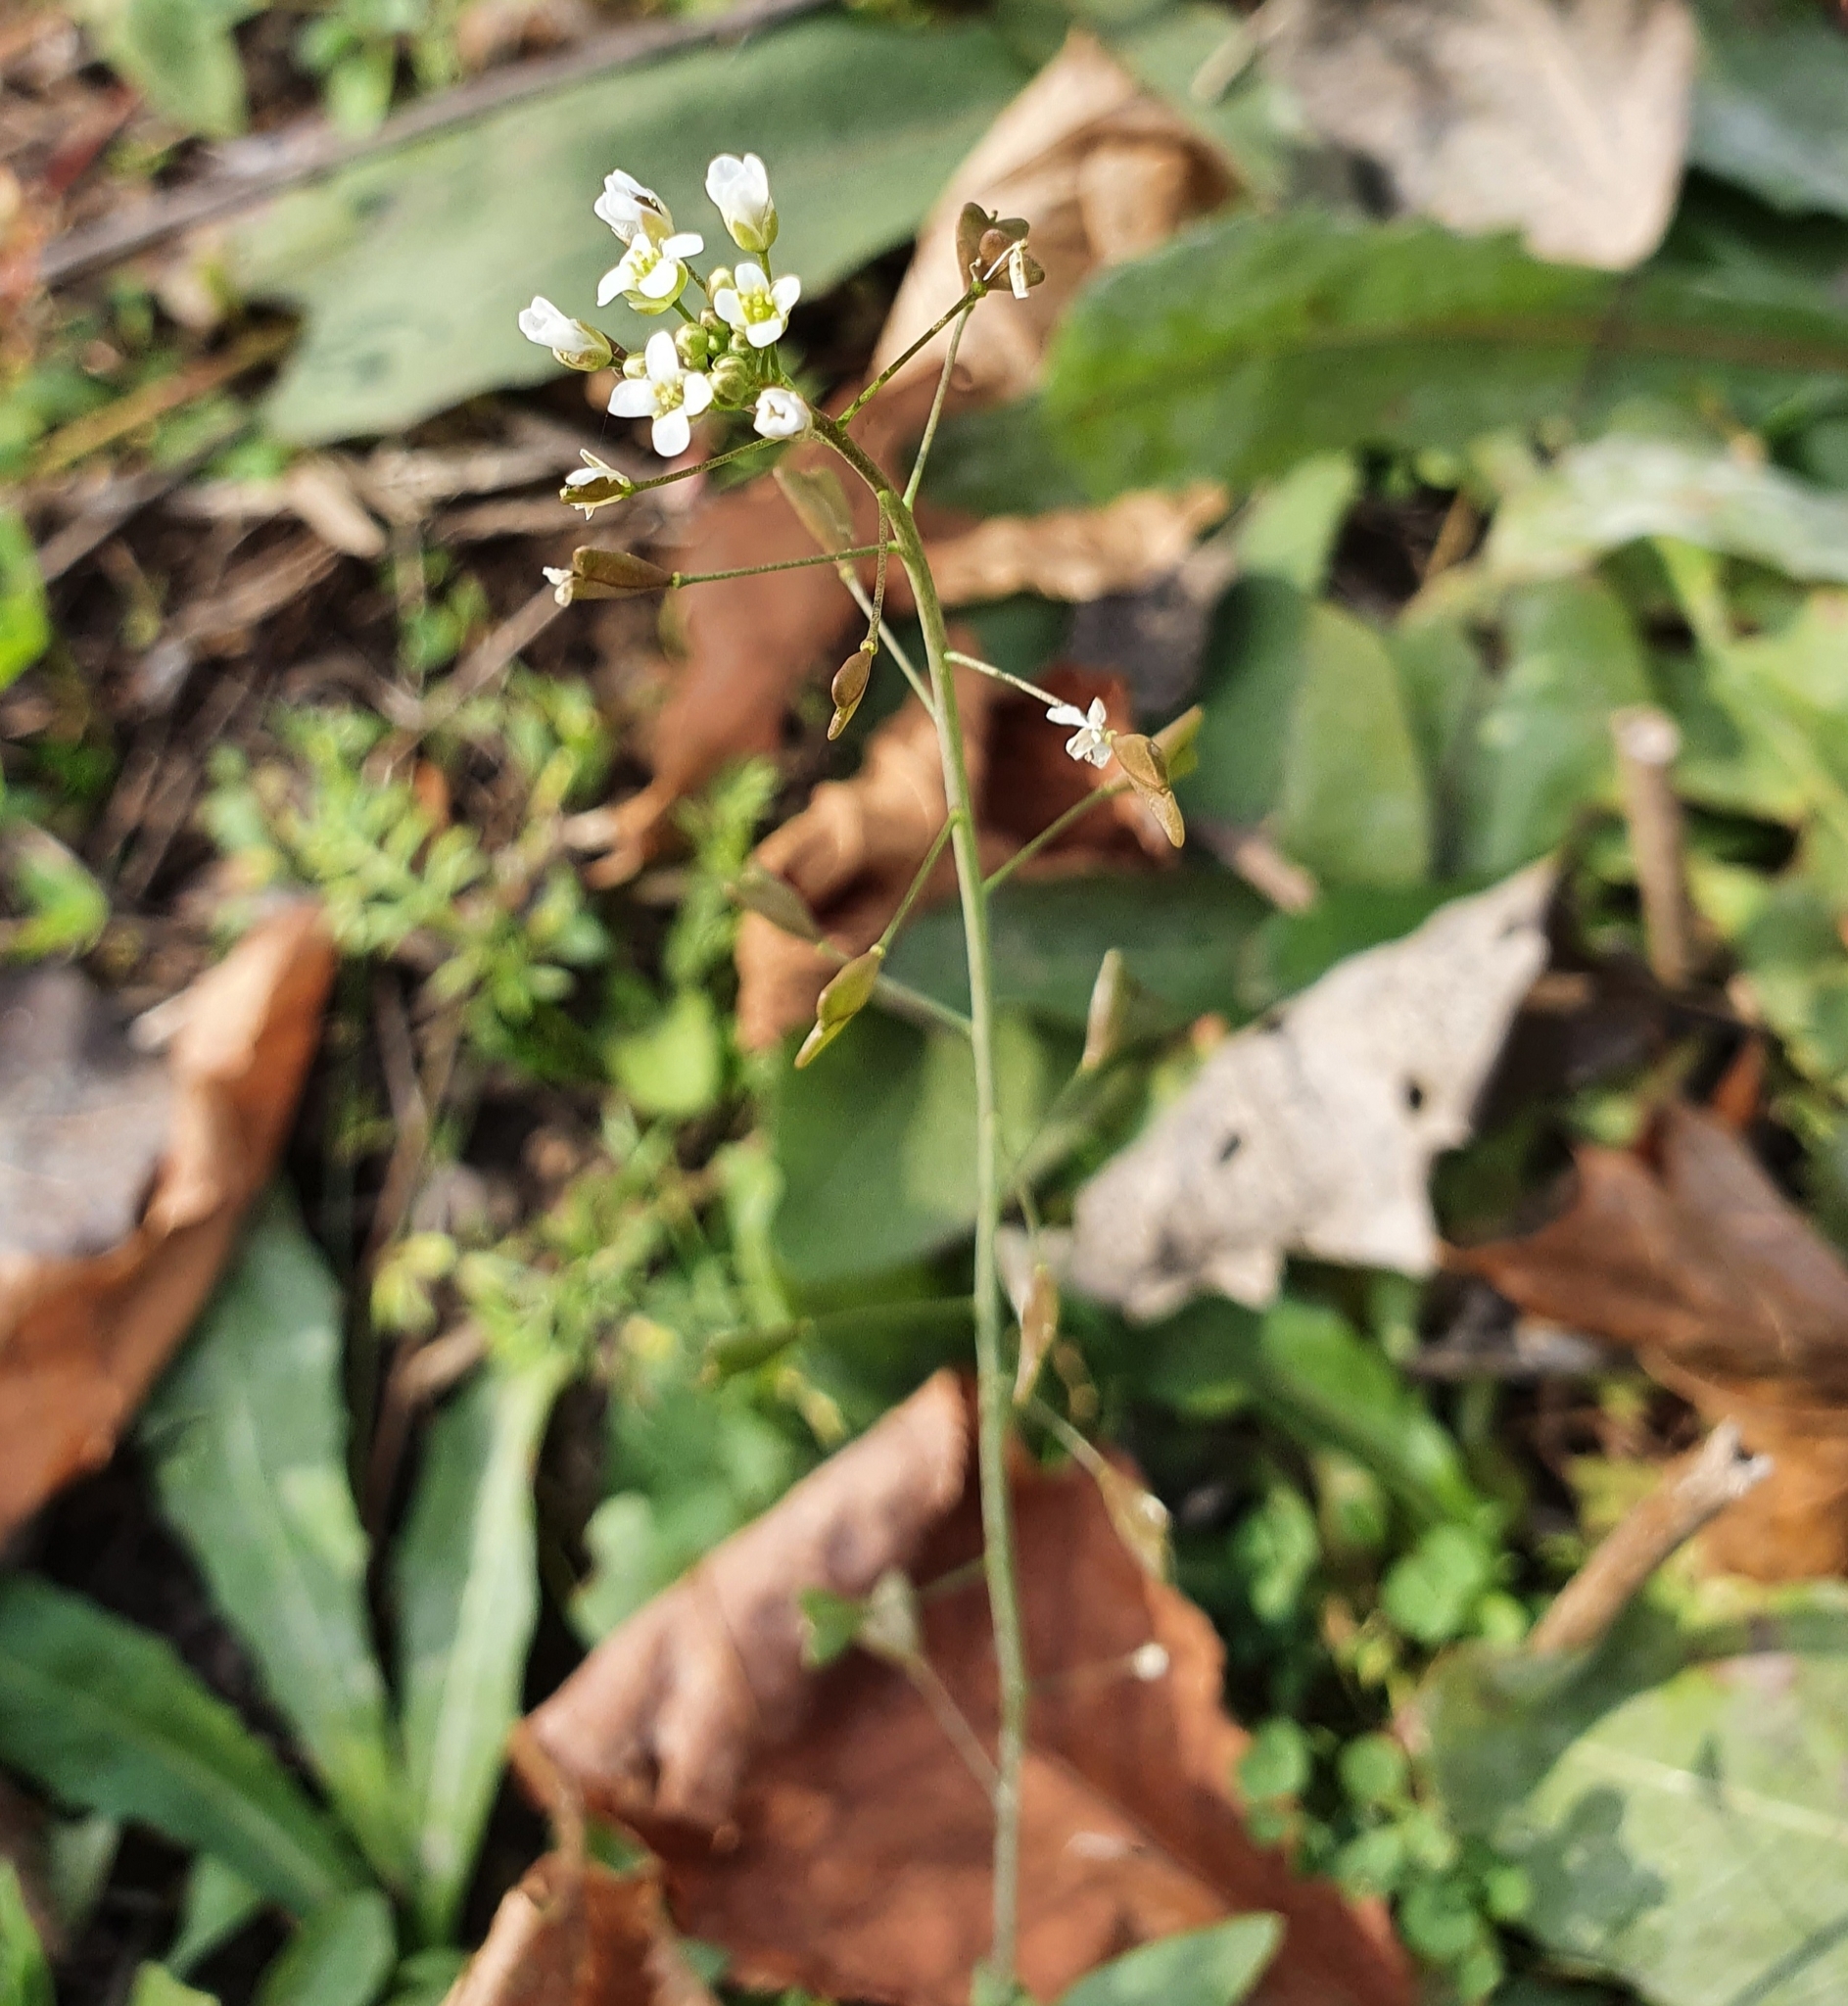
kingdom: Plantae
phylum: Tracheophyta
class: Magnoliopsida
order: Brassicales
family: Brassicaceae
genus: Capsella
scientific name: Capsella bursa-pastoris
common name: Shepherd's purse
